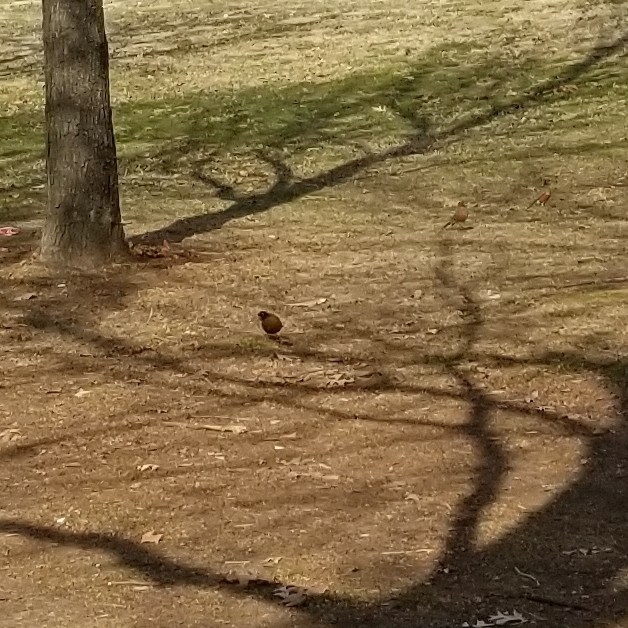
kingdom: Animalia
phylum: Chordata
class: Aves
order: Passeriformes
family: Turdidae
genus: Turdus
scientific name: Turdus migratorius
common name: American robin
